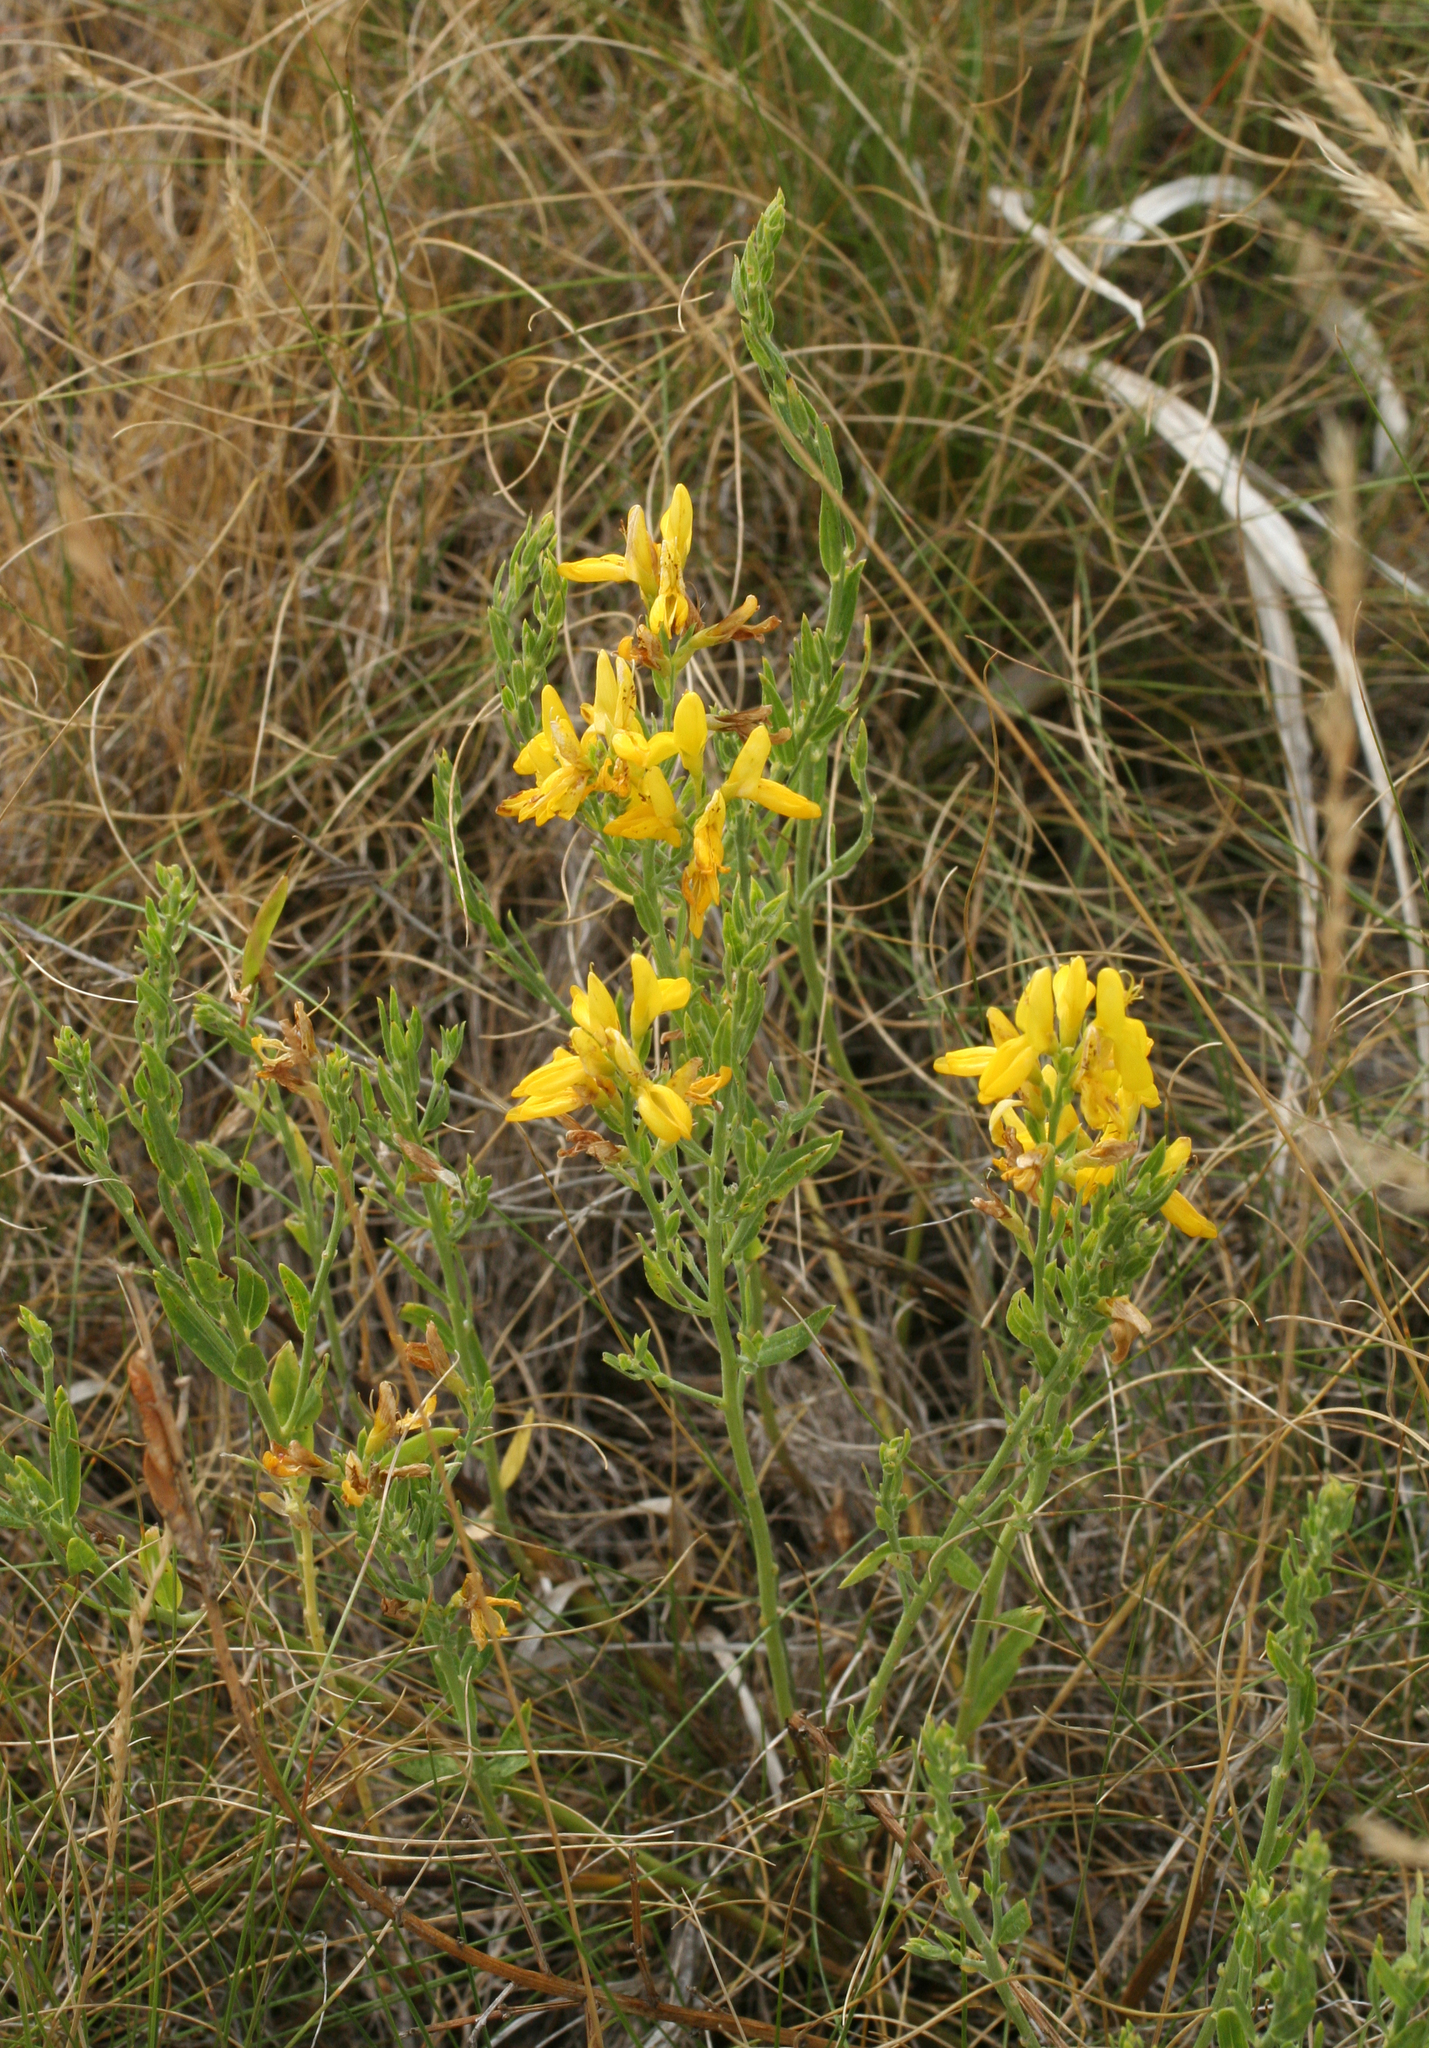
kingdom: Plantae
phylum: Tracheophyta
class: Magnoliopsida
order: Fabales
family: Fabaceae
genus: Genista
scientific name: Genista tinctoria
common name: Dyer's greenweed
